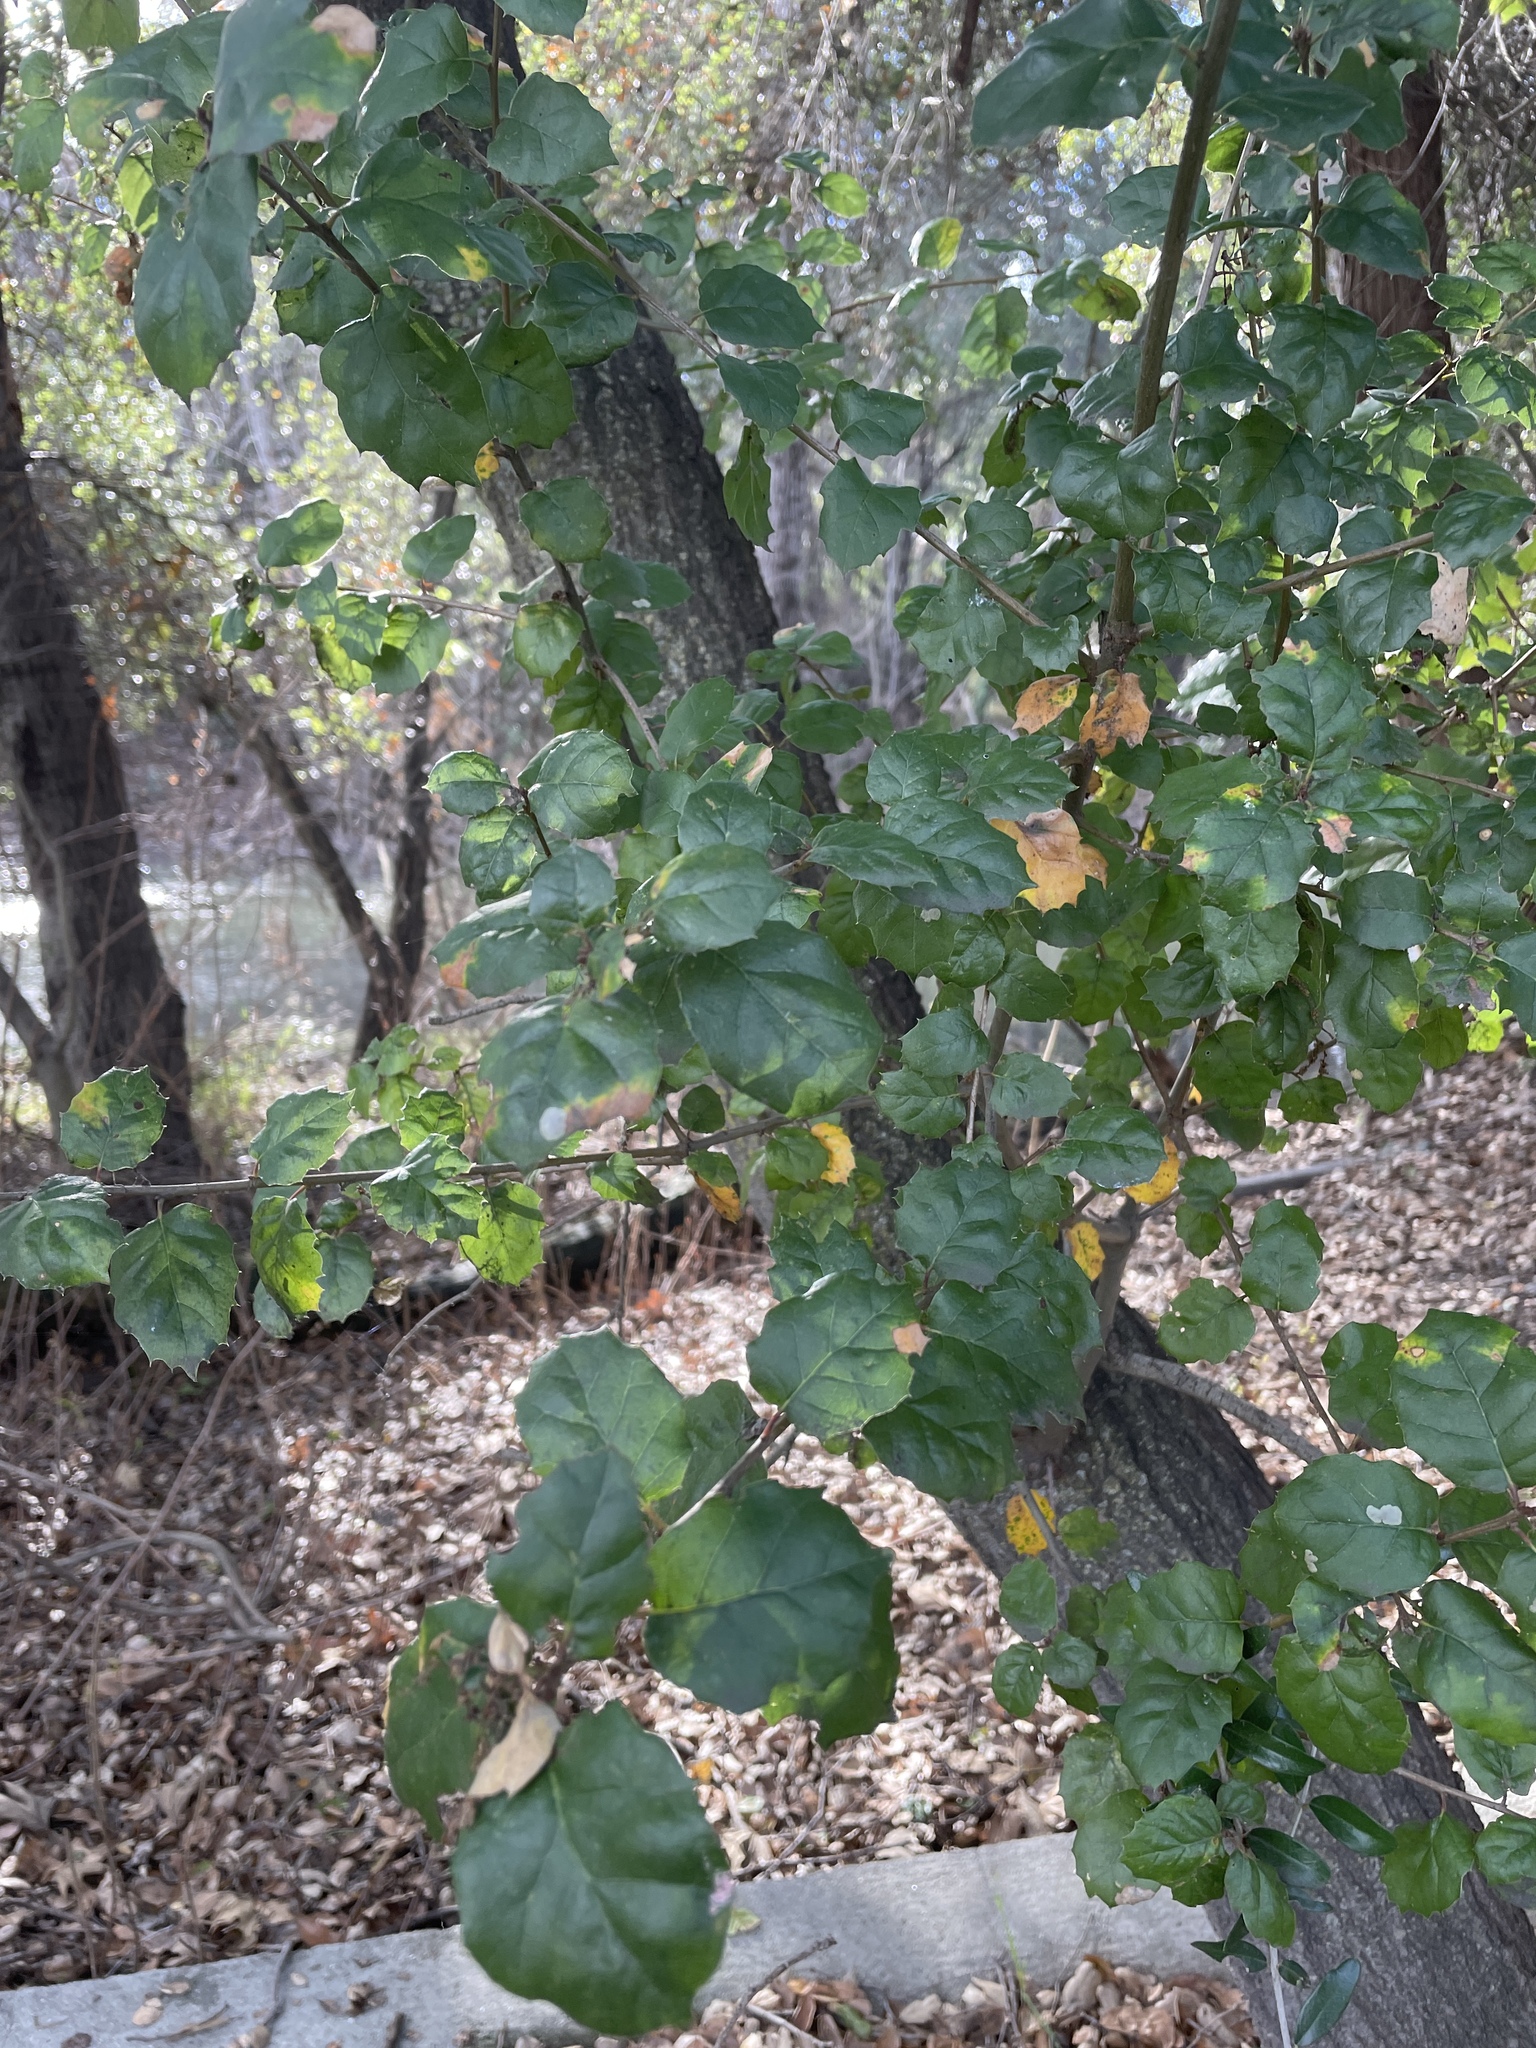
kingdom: Plantae
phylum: Tracheophyta
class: Magnoliopsida
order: Fagales
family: Fagaceae
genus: Quercus
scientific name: Quercus agrifolia
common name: California live oak
